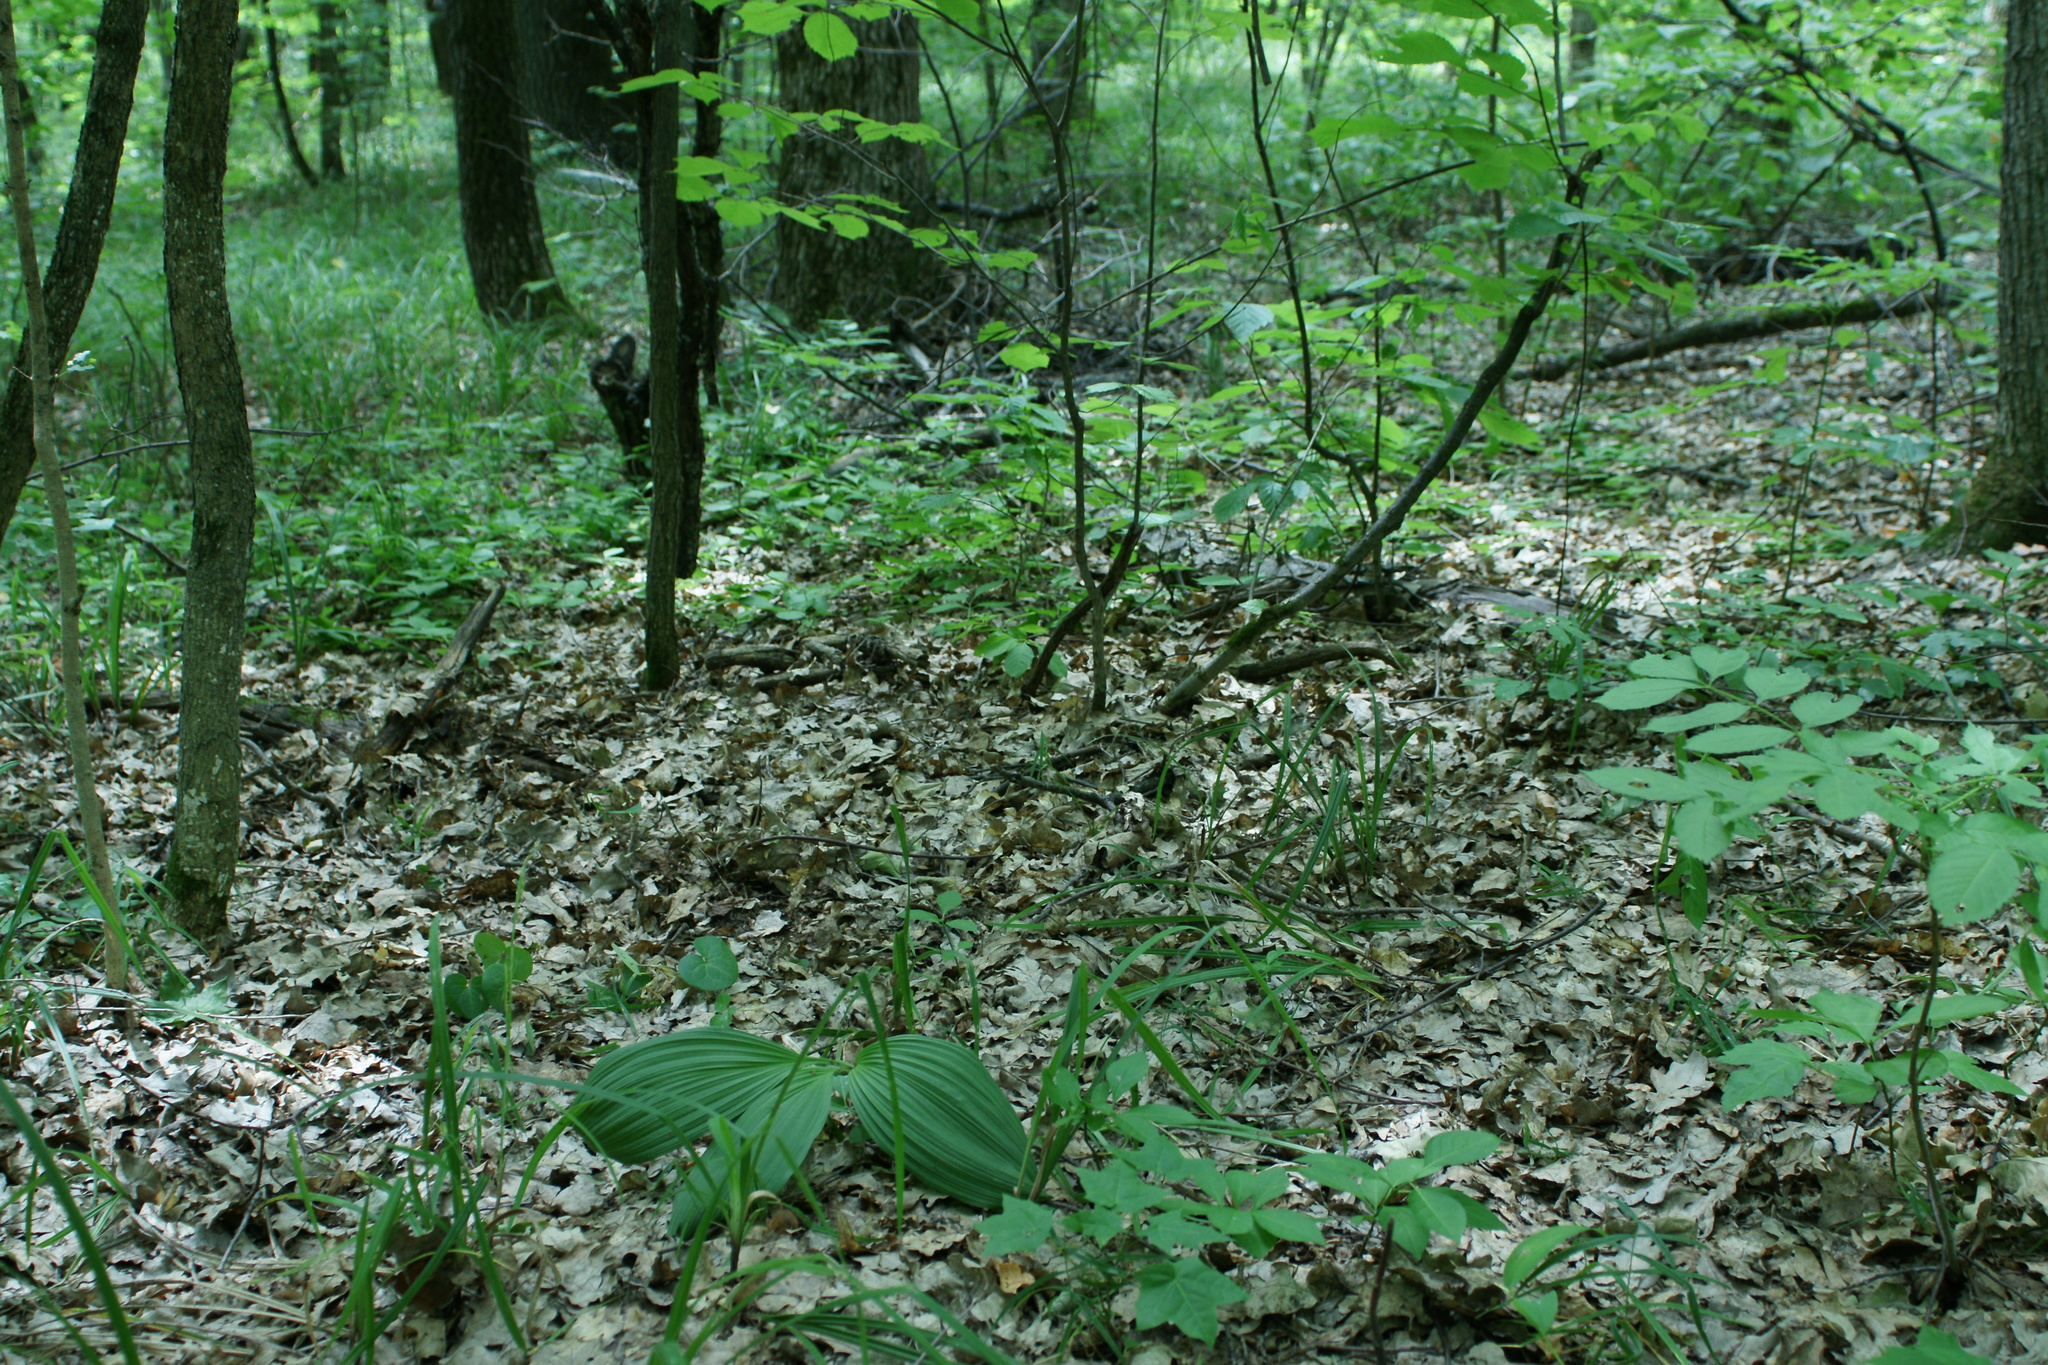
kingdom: Plantae
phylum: Tracheophyta
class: Liliopsida
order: Liliales
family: Melanthiaceae
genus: Veratrum
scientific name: Veratrum nigrum
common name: Black veratrum
